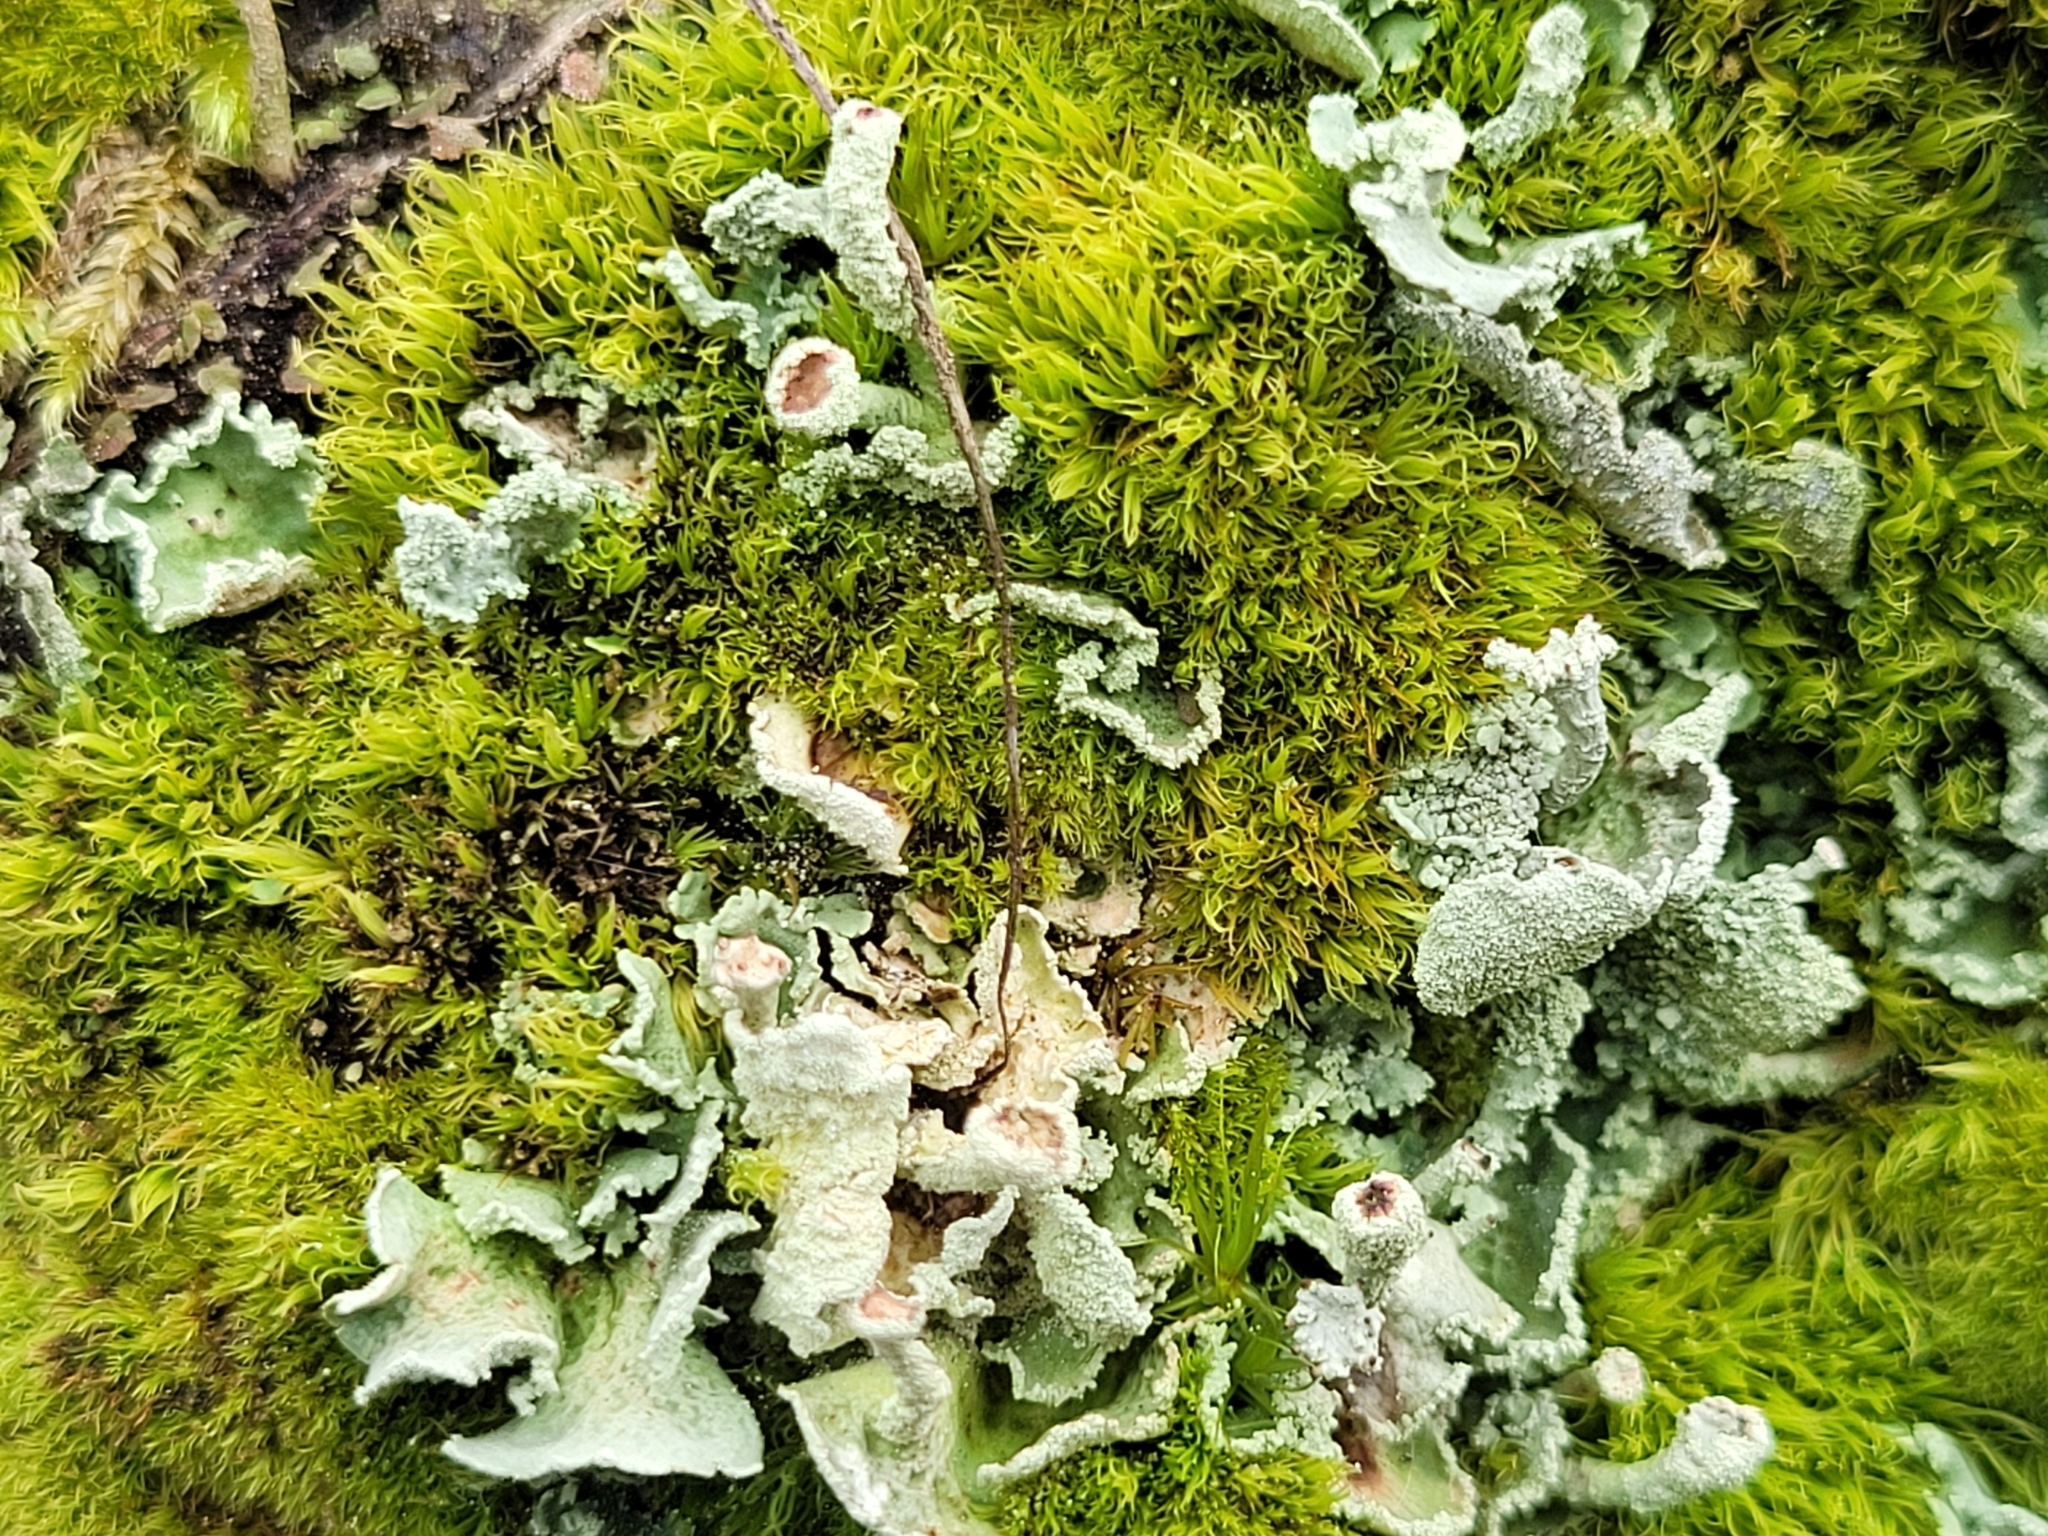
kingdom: Fungi
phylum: Ascomycota
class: Lecanoromycetes
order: Lecanorales
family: Cladoniaceae
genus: Cladonia
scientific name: Cladonia digitata
